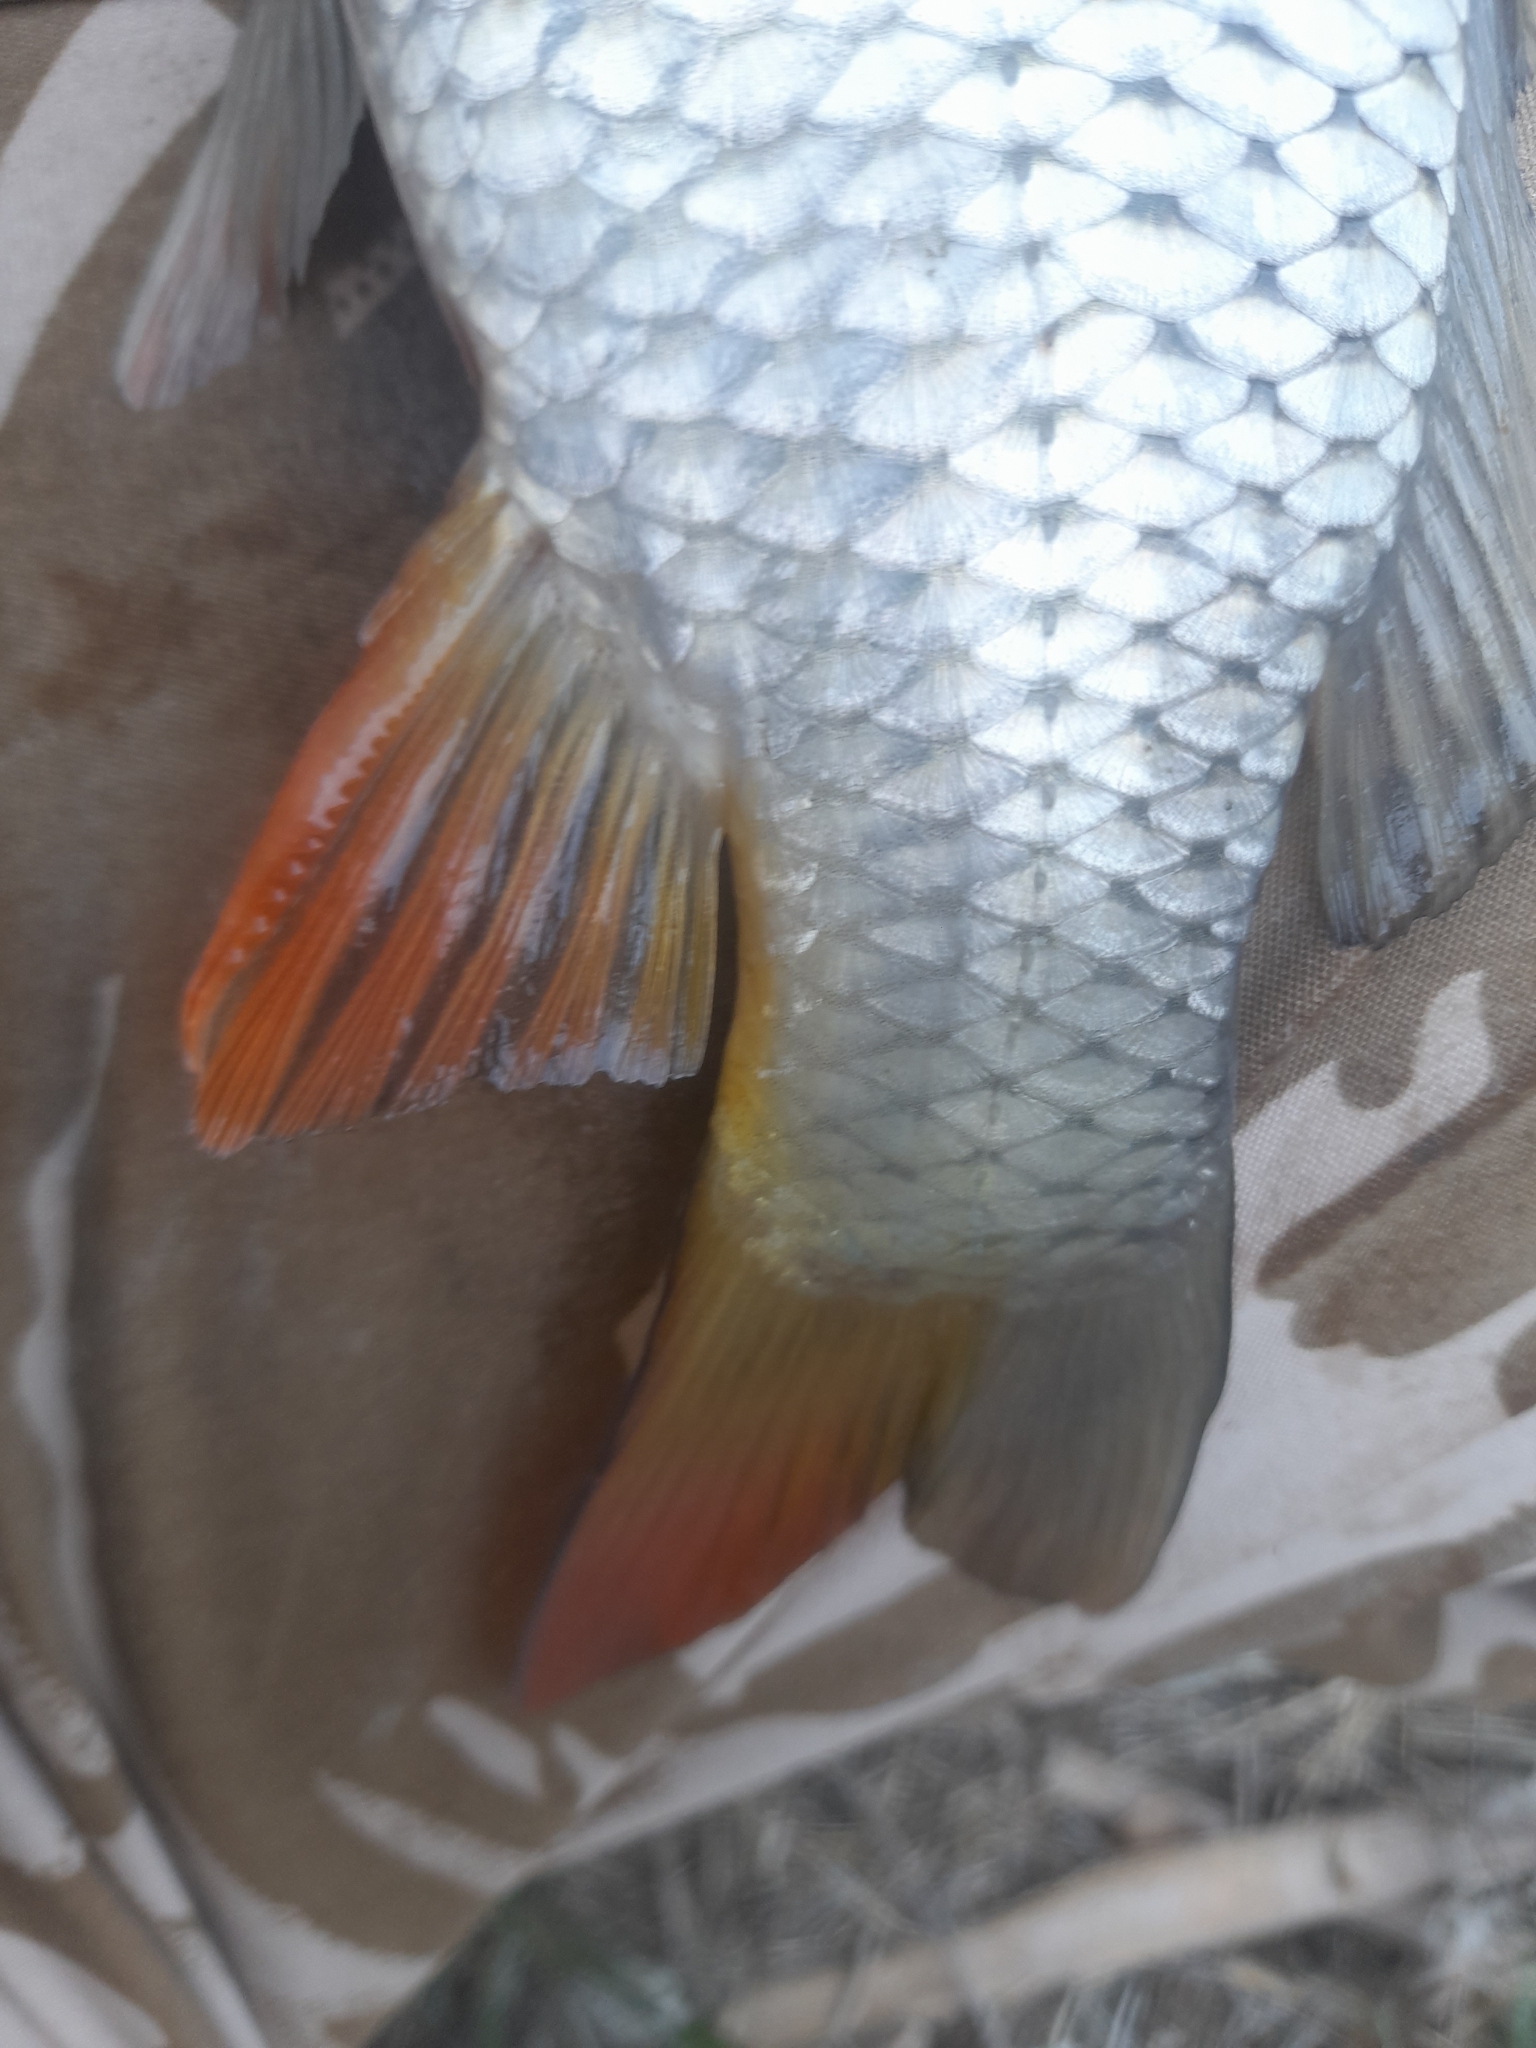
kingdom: Animalia
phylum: Chordata
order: Cypriniformes
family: Cyprinidae
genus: Cyprinus
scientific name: Cyprinus carpio
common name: Common carp
